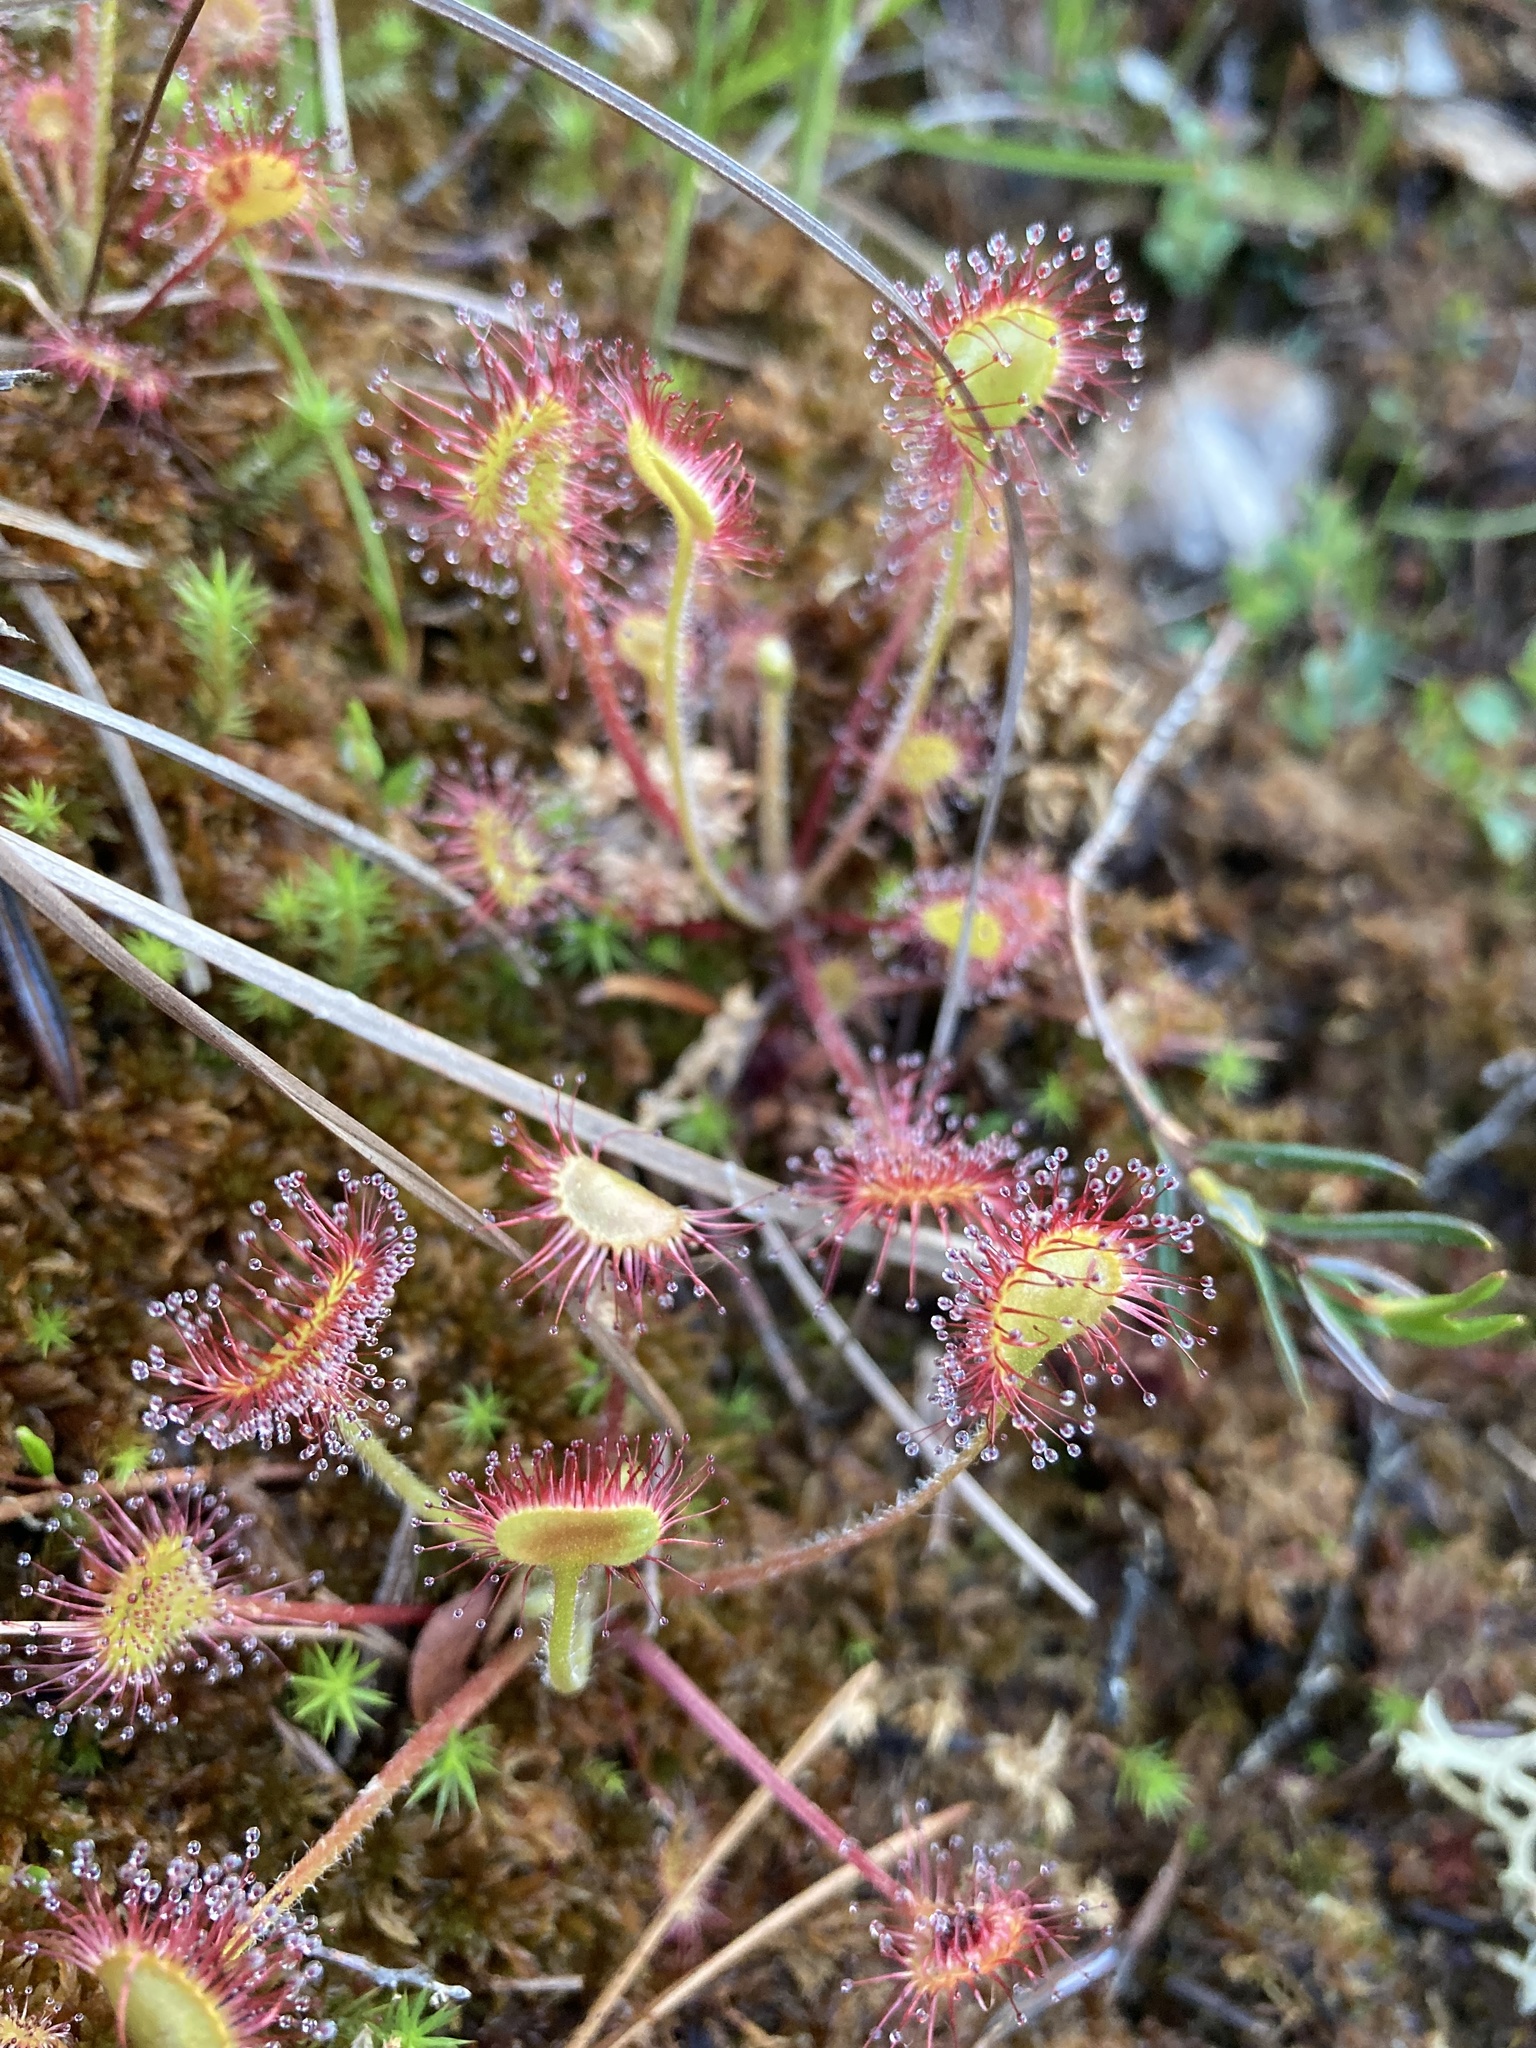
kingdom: Plantae
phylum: Tracheophyta
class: Magnoliopsida
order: Caryophyllales
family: Droseraceae
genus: Drosera
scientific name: Drosera rotundifolia
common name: Round-leaved sundew
